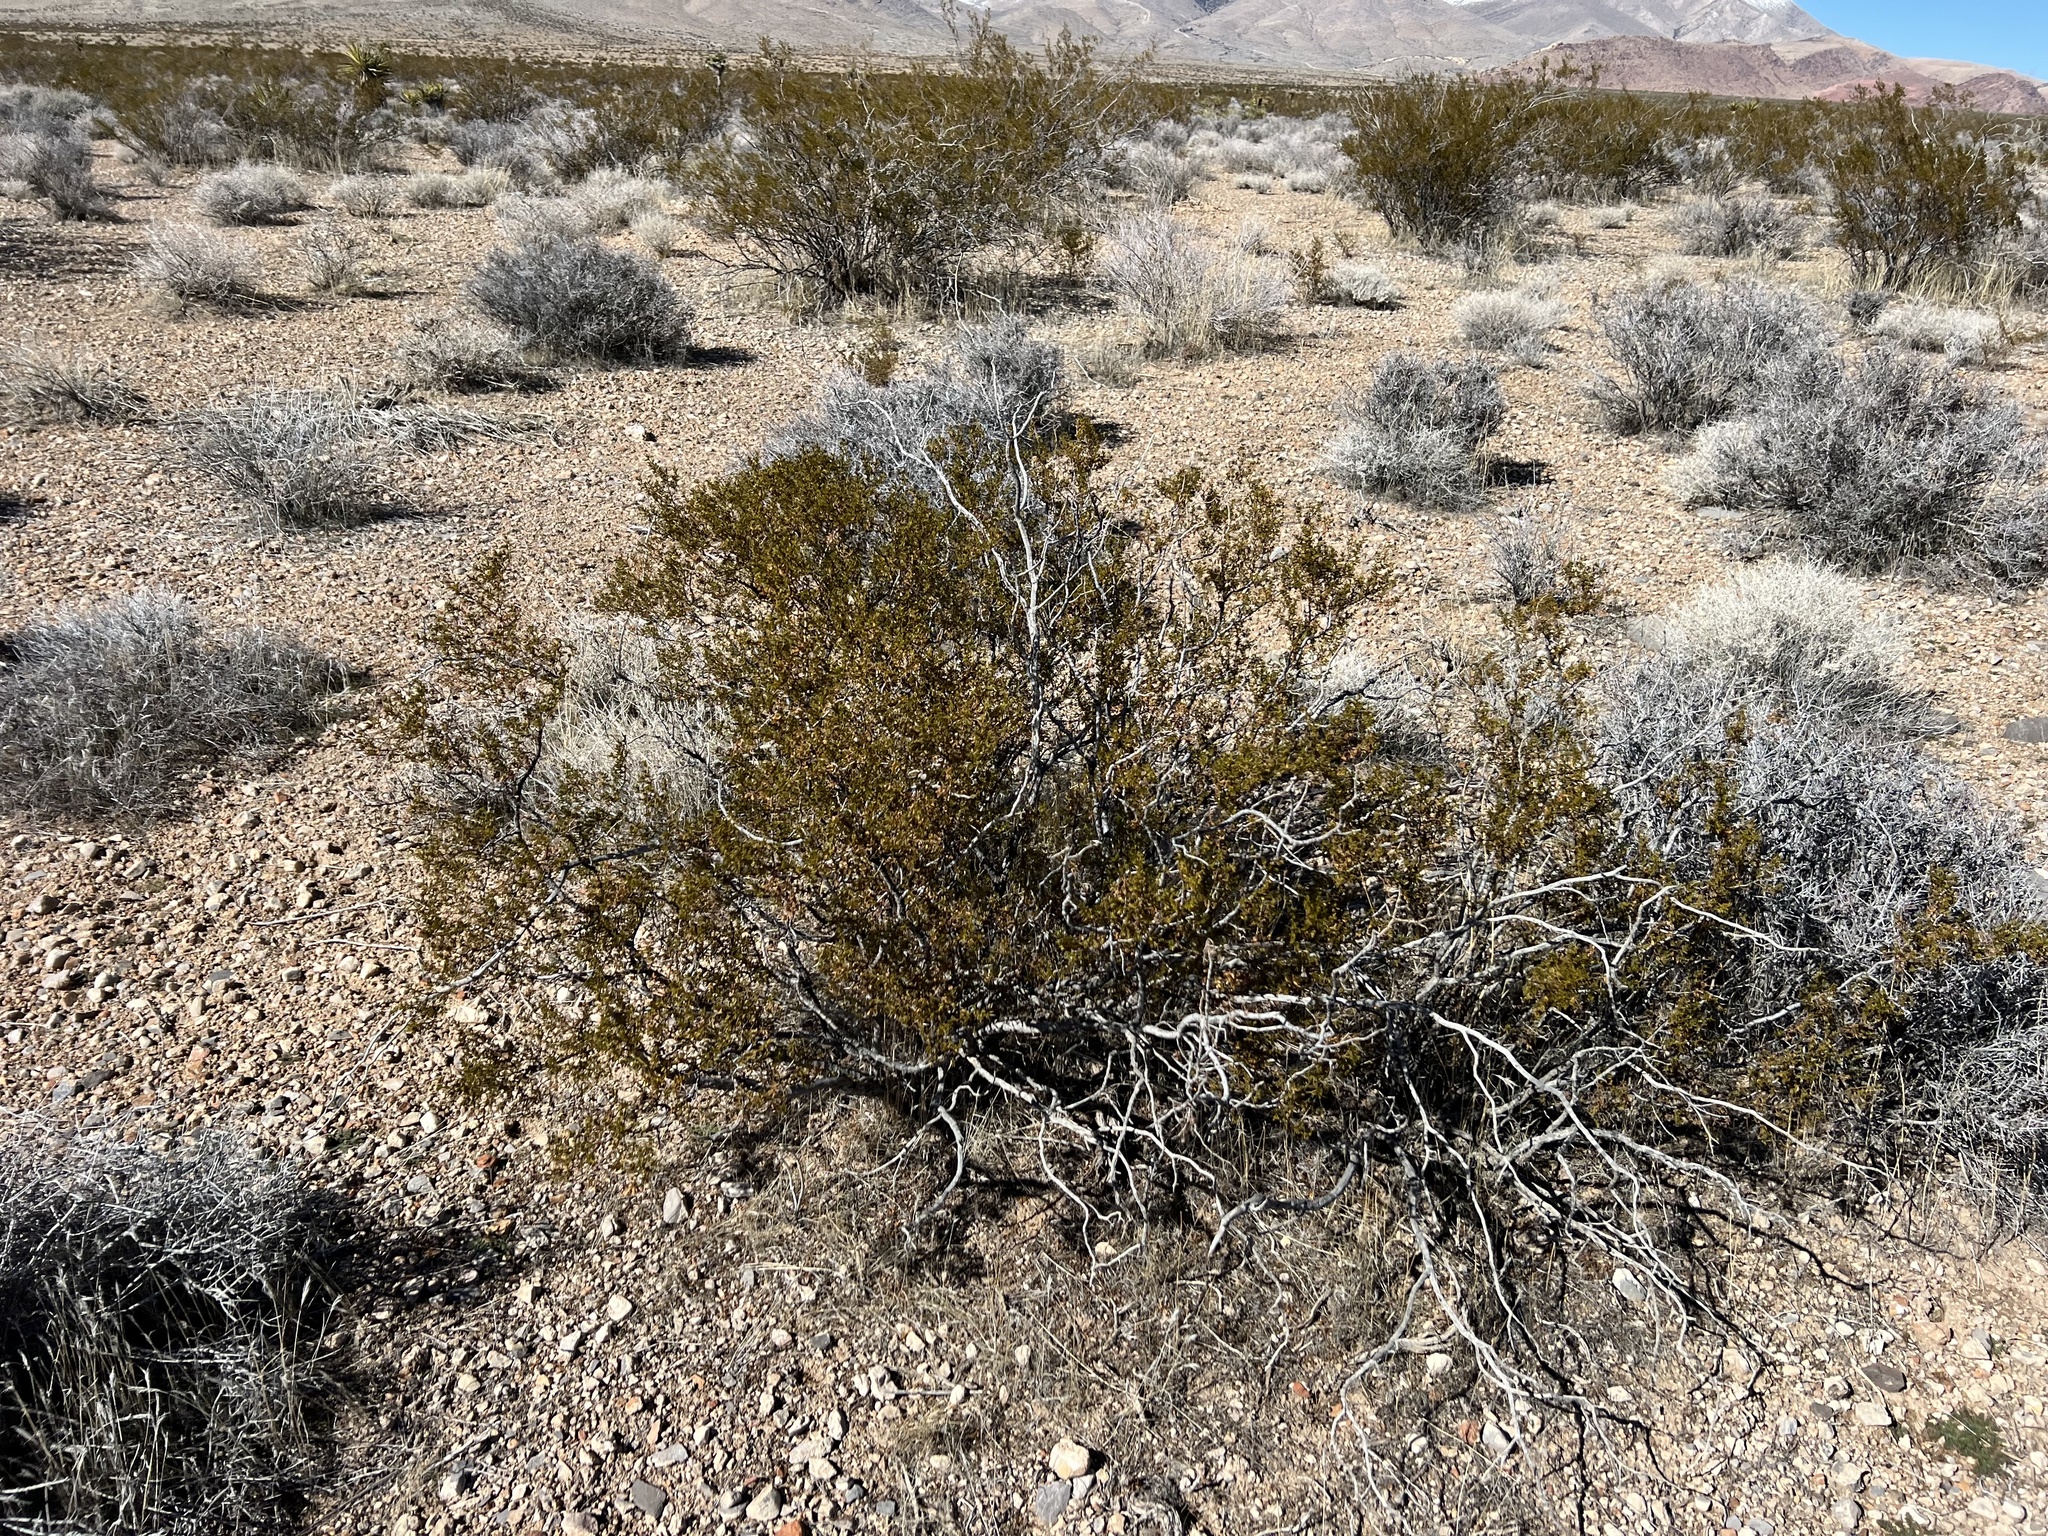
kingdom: Plantae
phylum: Tracheophyta
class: Magnoliopsida
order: Zygophyllales
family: Zygophyllaceae
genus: Larrea
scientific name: Larrea tridentata
